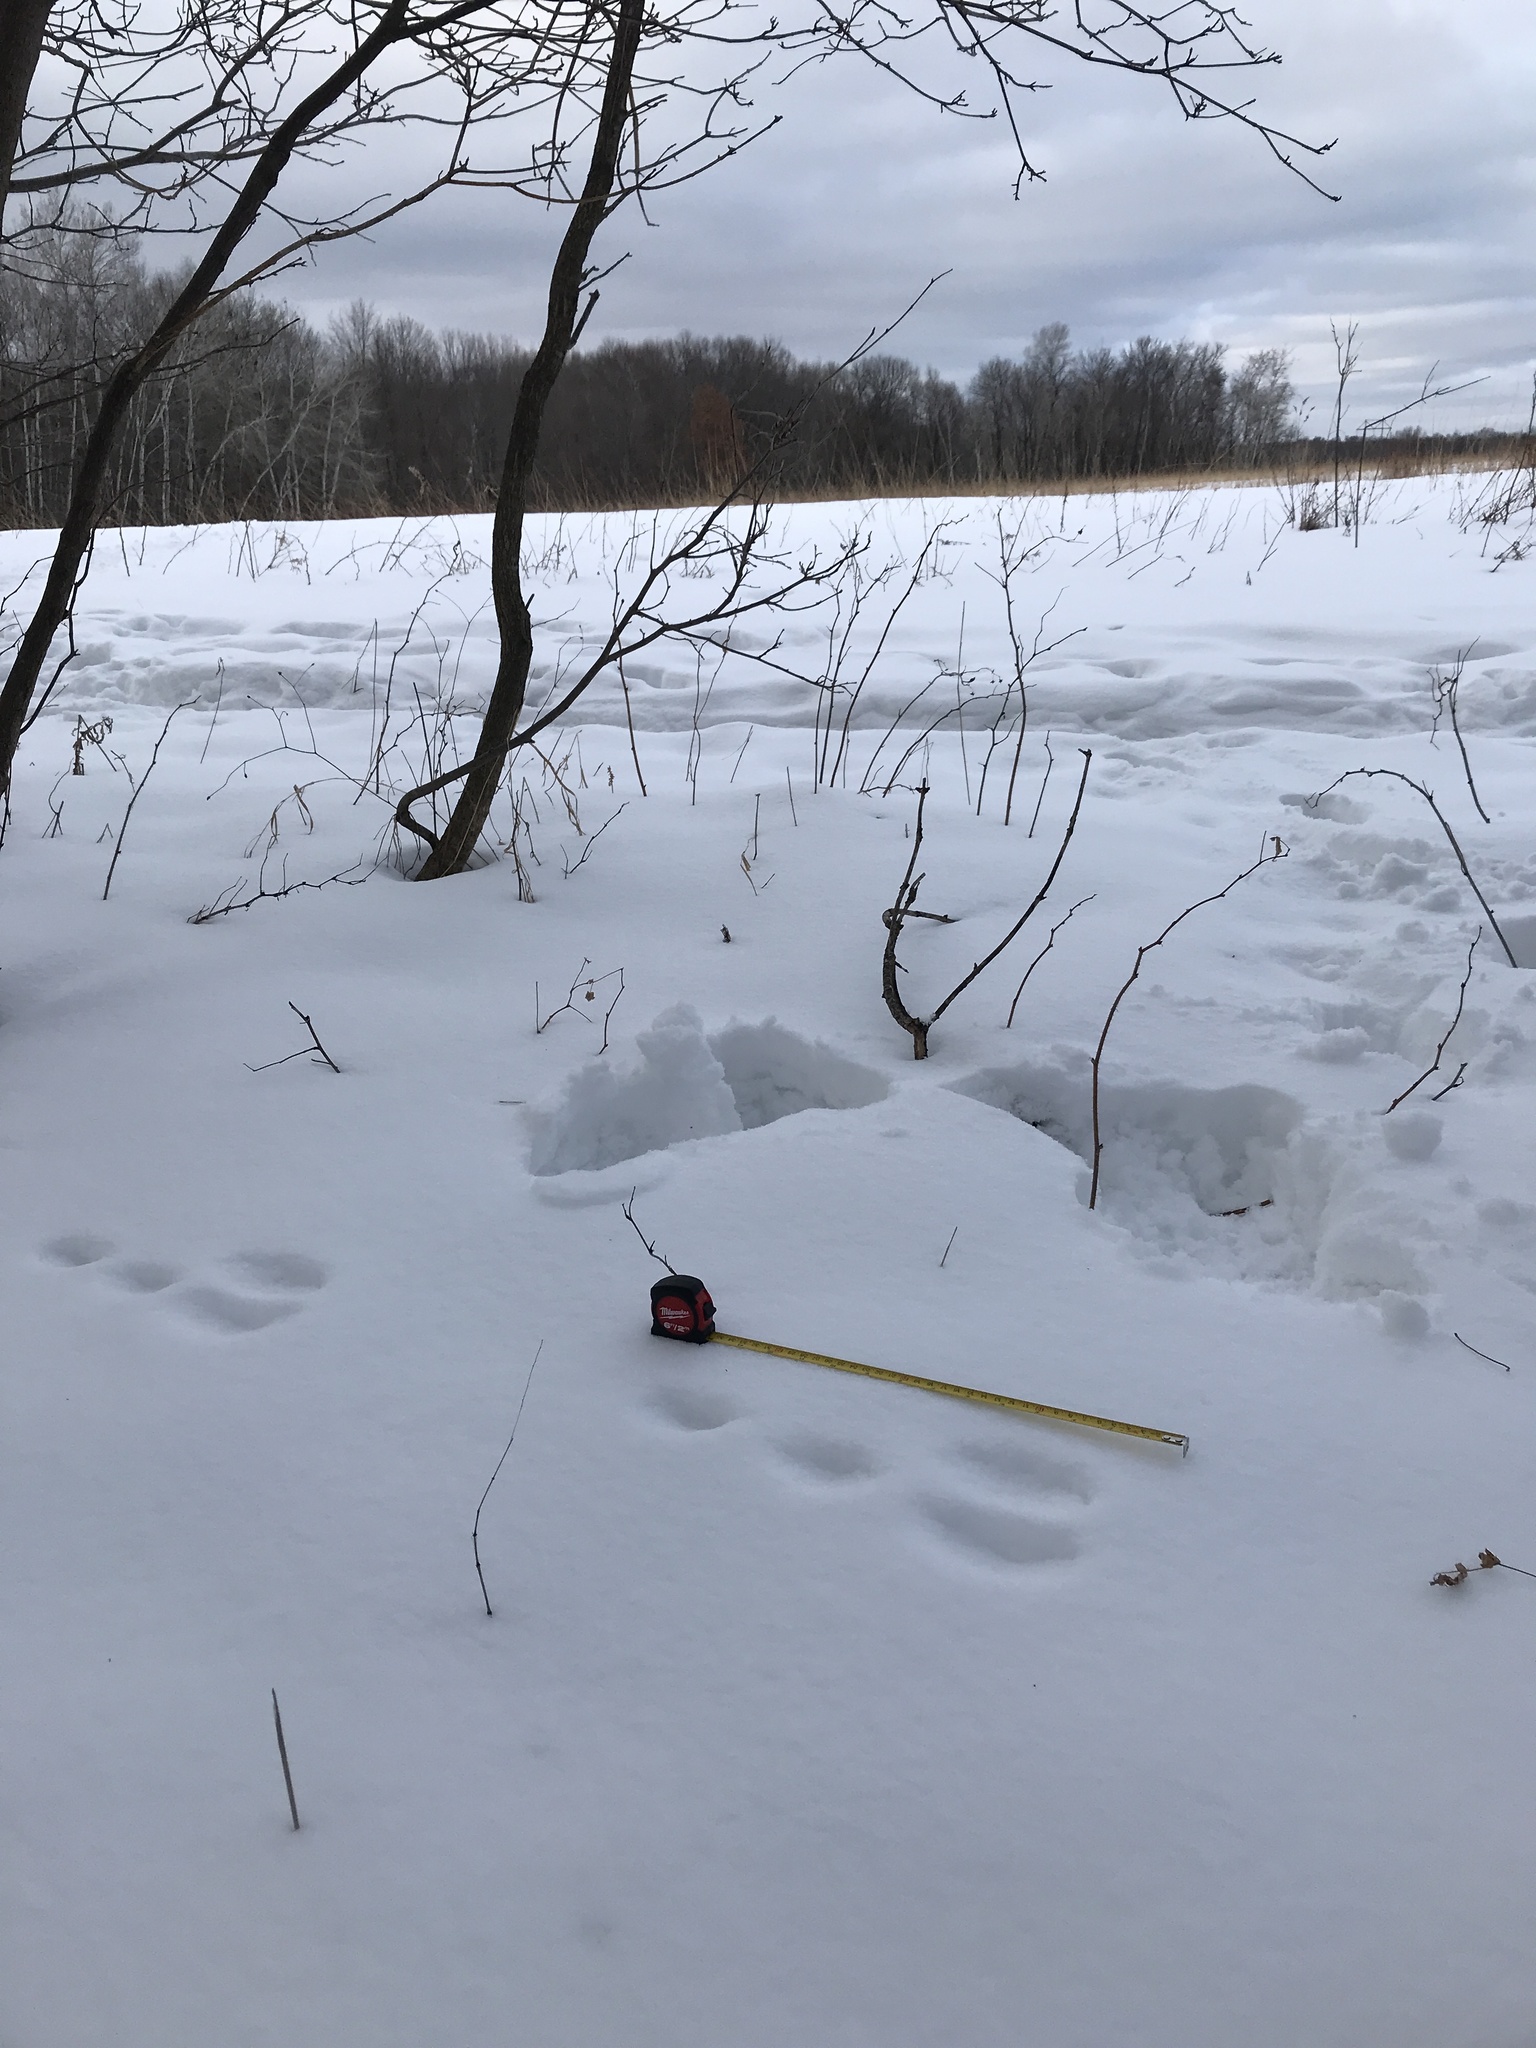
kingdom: Animalia
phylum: Chordata
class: Mammalia
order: Lagomorpha
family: Leporidae
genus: Sylvilagus
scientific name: Sylvilagus floridanus
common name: Eastern cottontail
